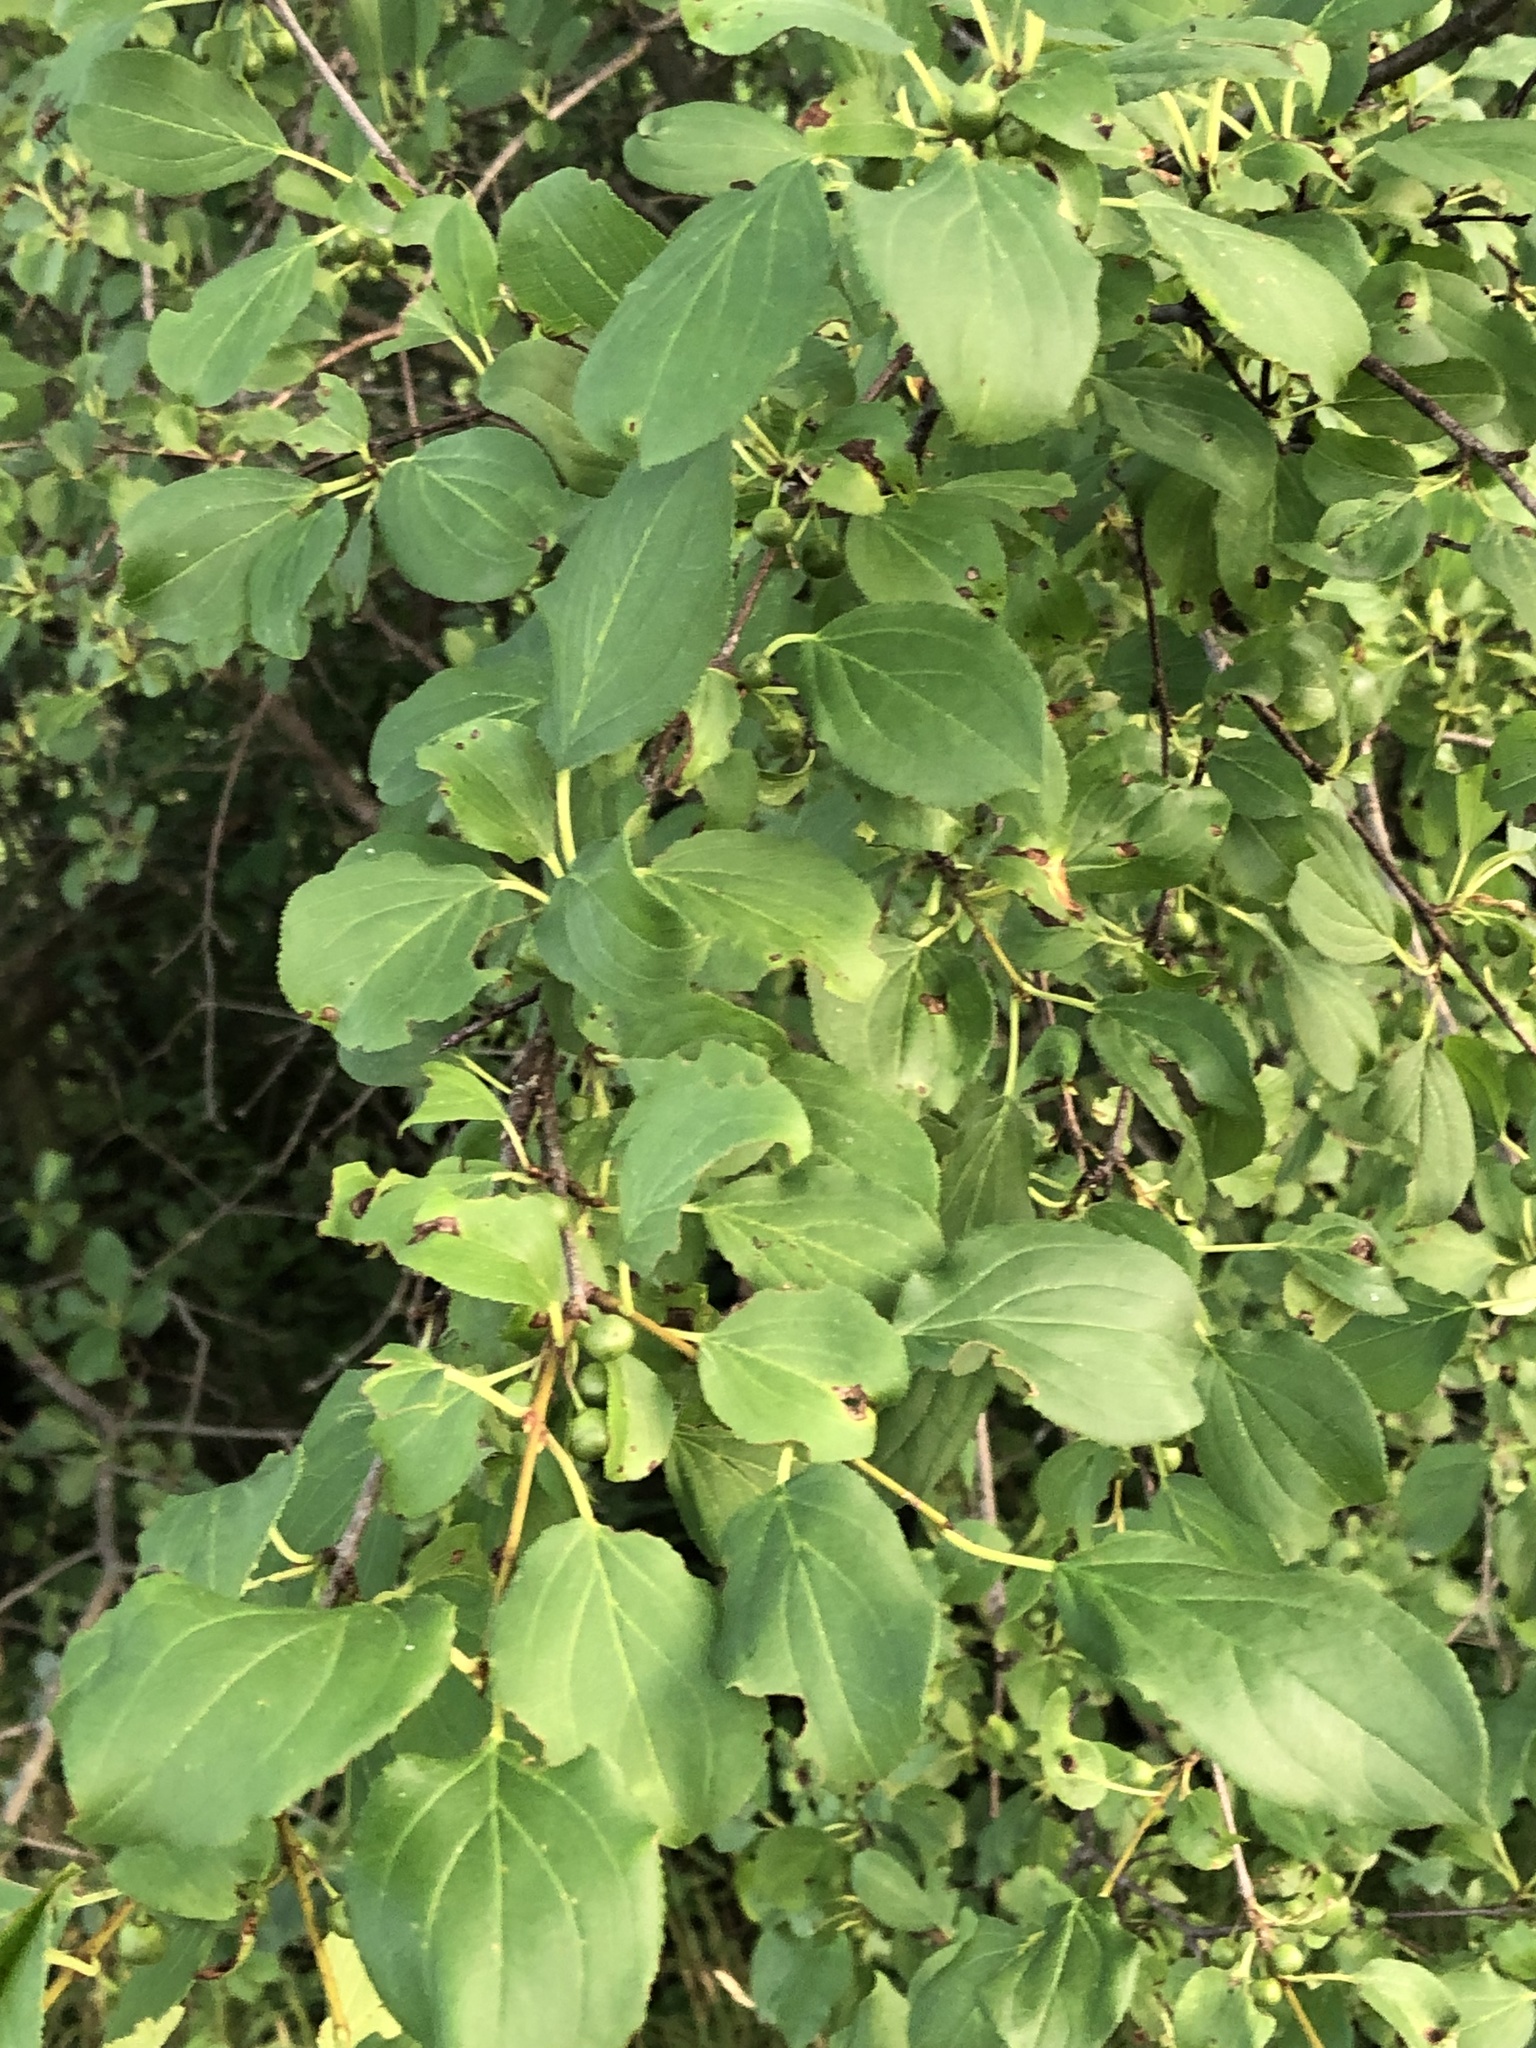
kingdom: Plantae
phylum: Tracheophyta
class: Magnoliopsida
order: Rosales
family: Rhamnaceae
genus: Rhamnus
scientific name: Rhamnus cathartica
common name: Common buckthorn
